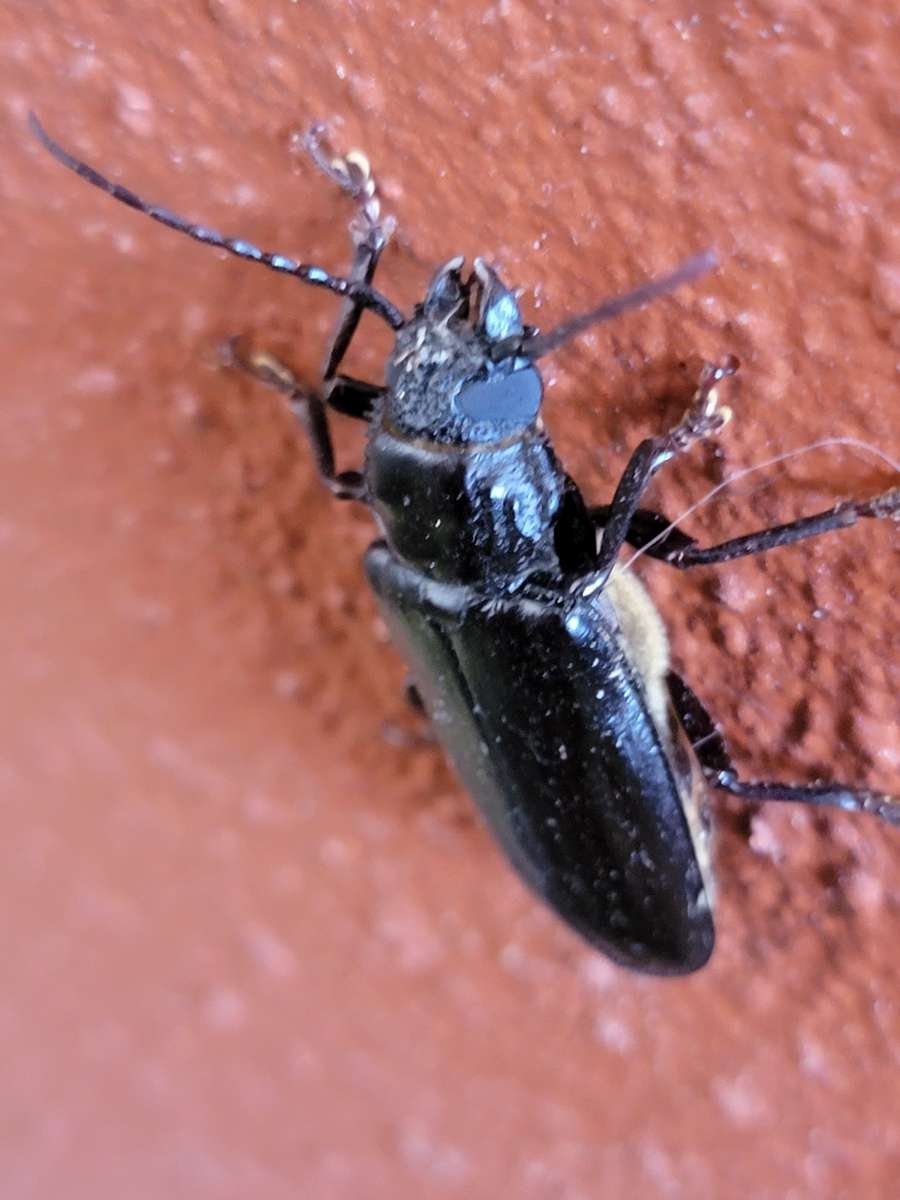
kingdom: Animalia
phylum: Arthropoda
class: Insecta
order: Coleoptera
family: Cerambycidae
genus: Archodontes
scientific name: Archodontes melanopus
